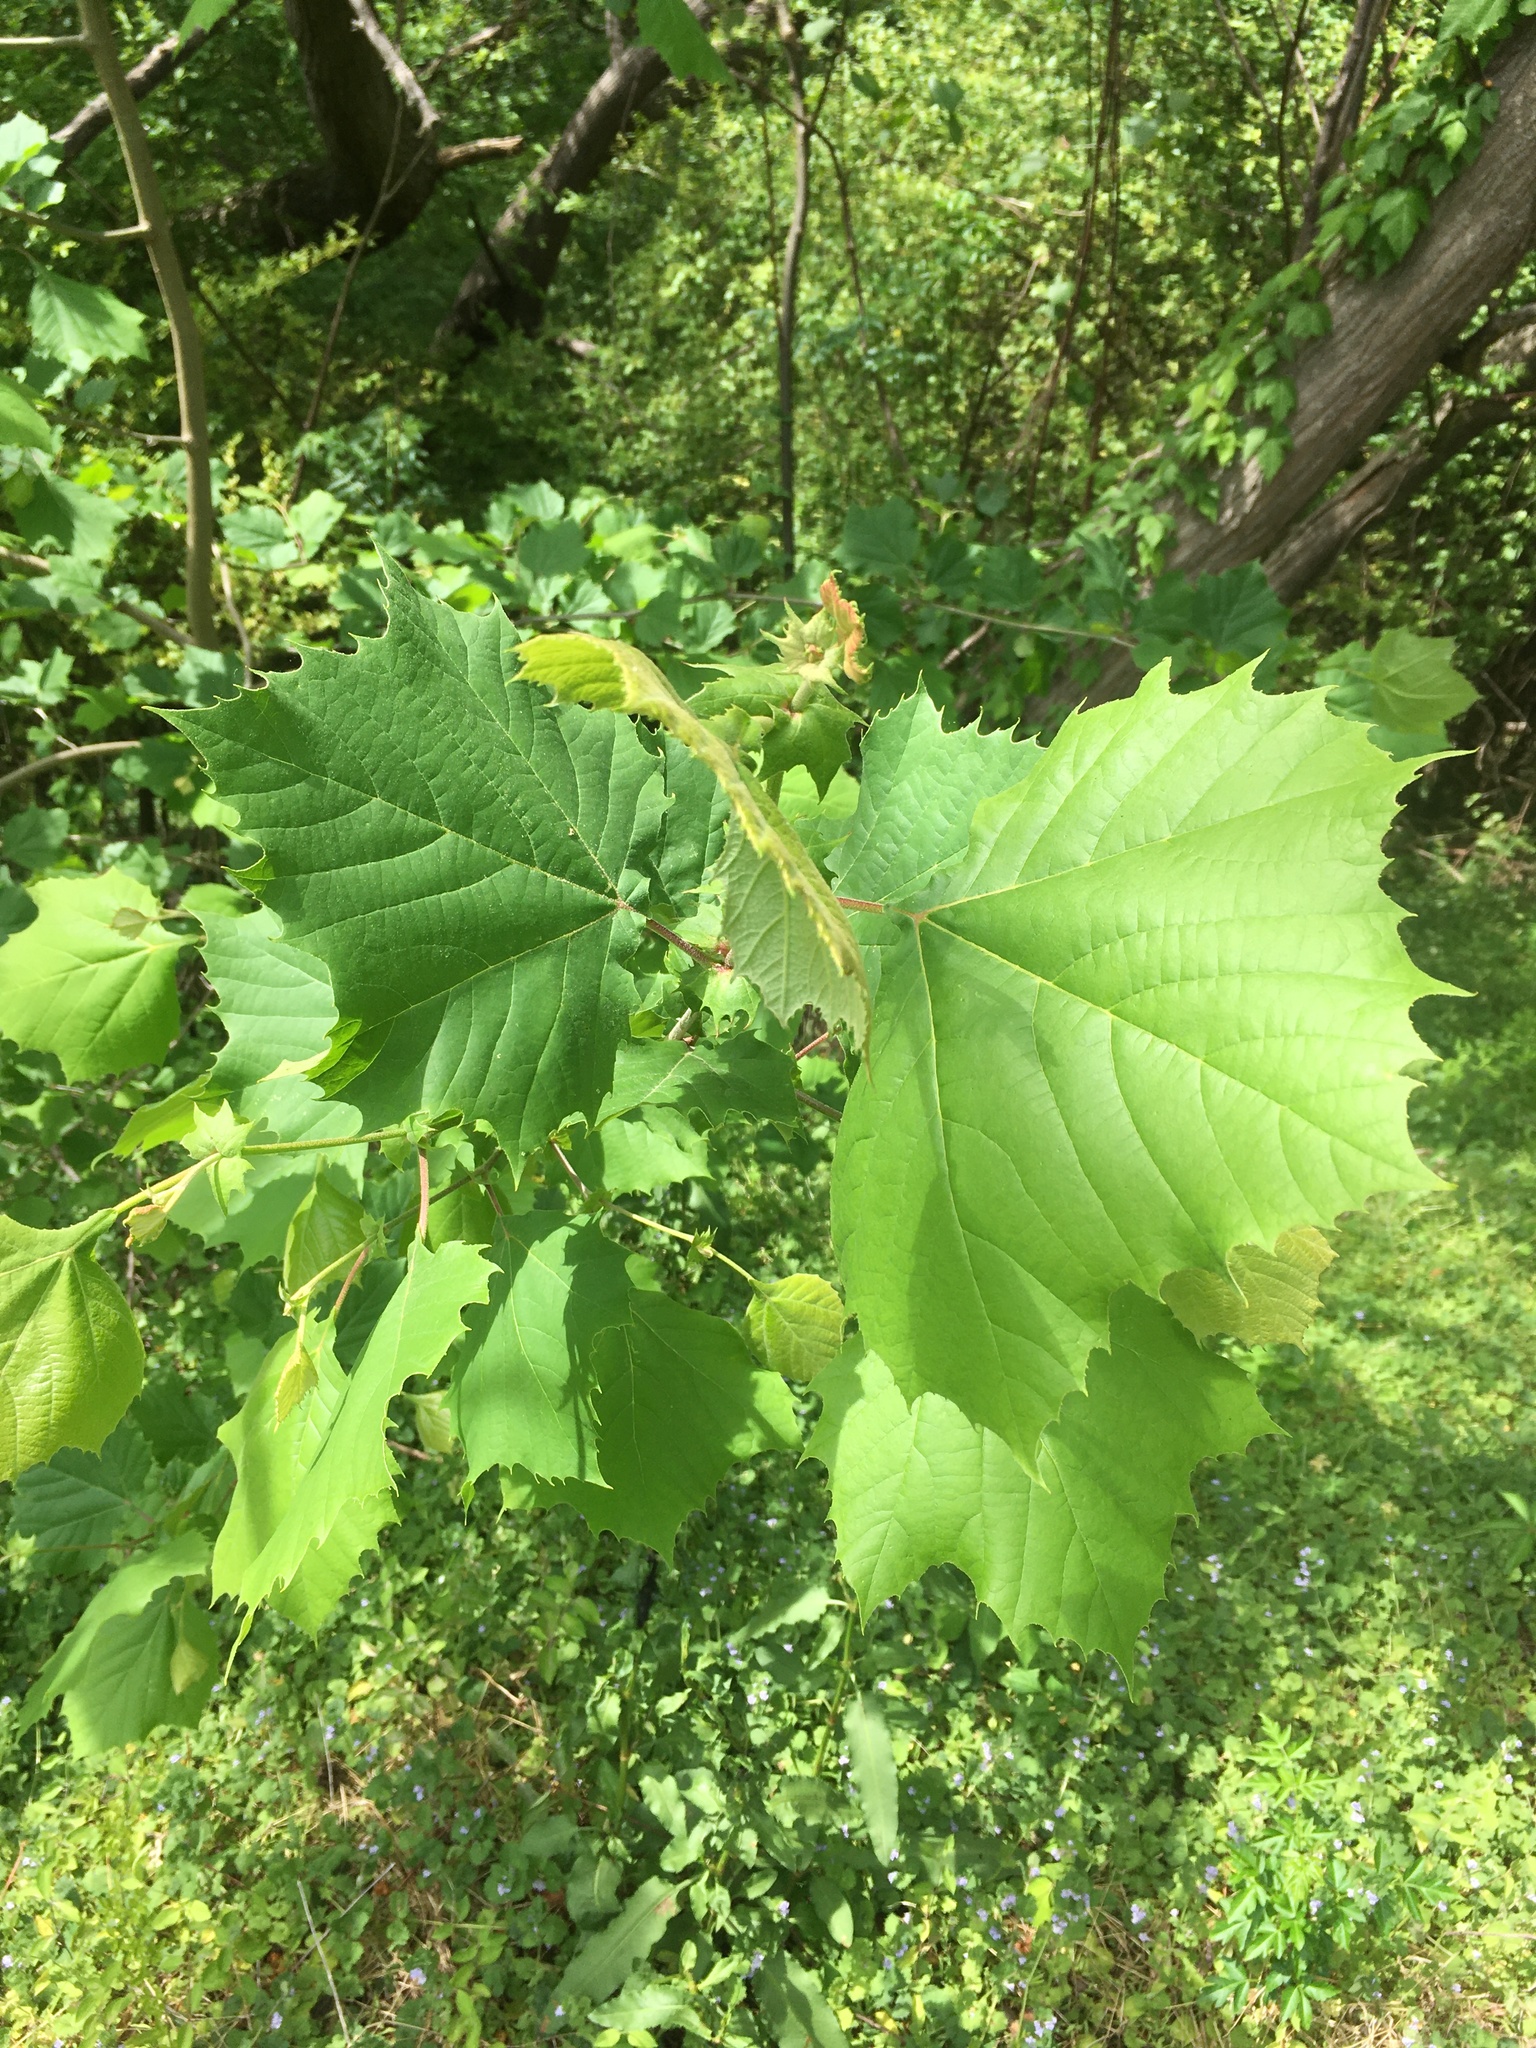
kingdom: Plantae
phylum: Tracheophyta
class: Magnoliopsida
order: Proteales
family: Platanaceae
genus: Platanus
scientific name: Platanus occidentalis
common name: American sycamore
